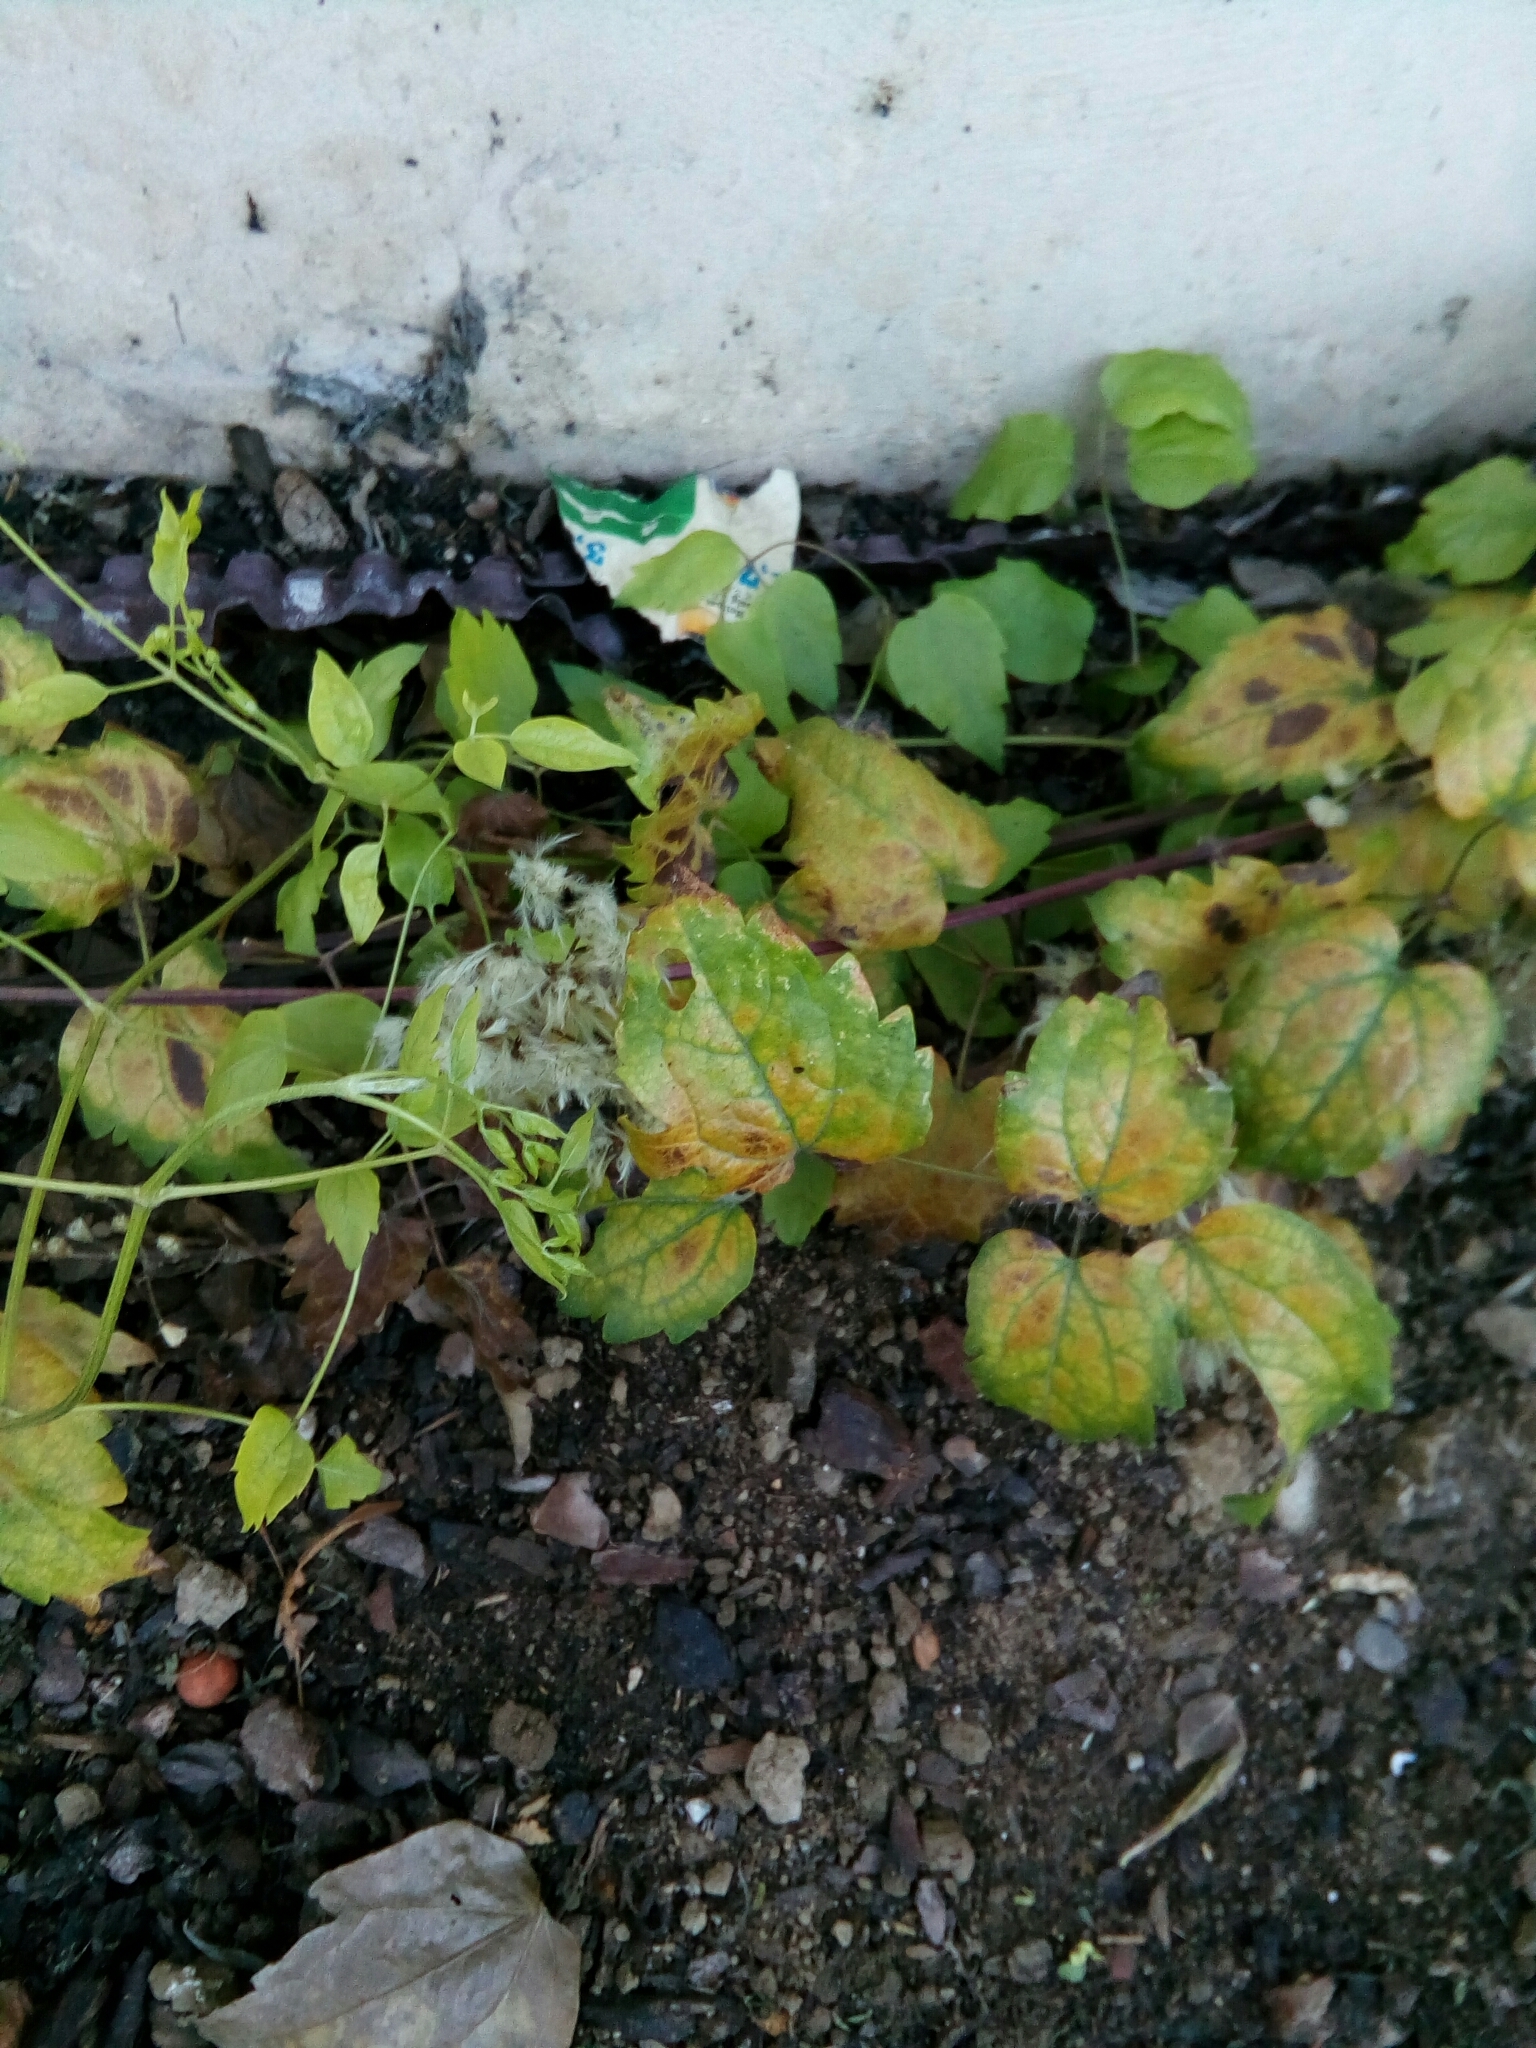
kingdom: Plantae
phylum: Tracheophyta
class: Magnoliopsida
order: Ranunculales
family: Ranunculaceae
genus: Clematis
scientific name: Clematis vitalba
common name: Evergreen clematis
